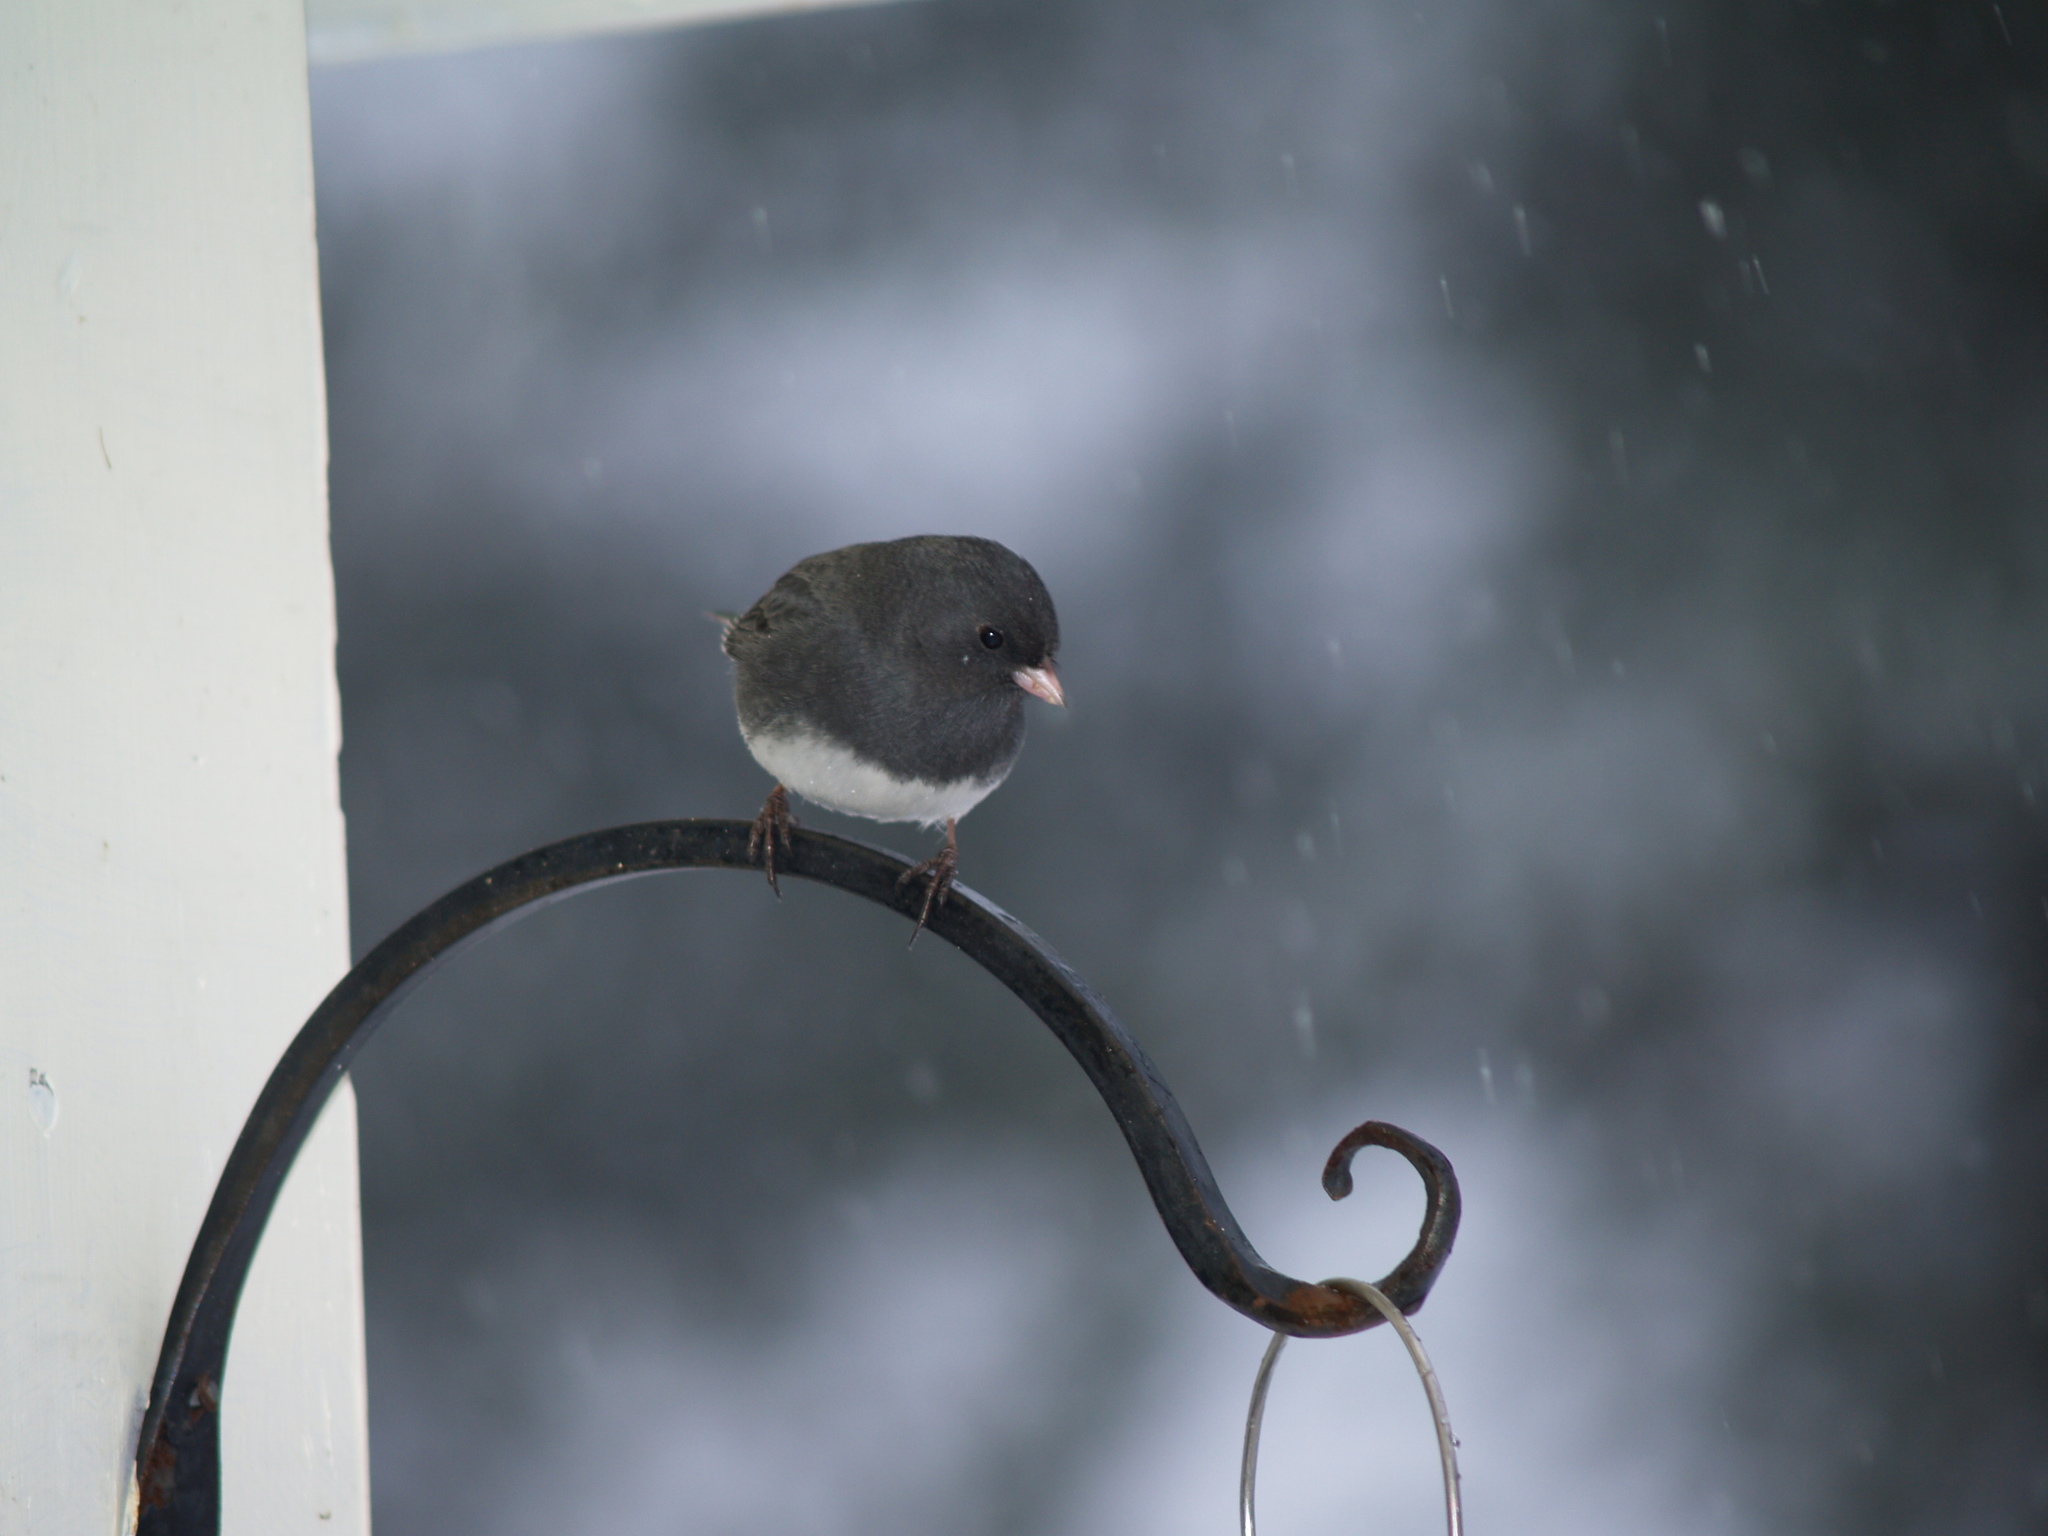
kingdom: Animalia
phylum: Chordata
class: Aves
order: Passeriformes
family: Passerellidae
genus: Junco
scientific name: Junco hyemalis
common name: Dark-eyed junco
